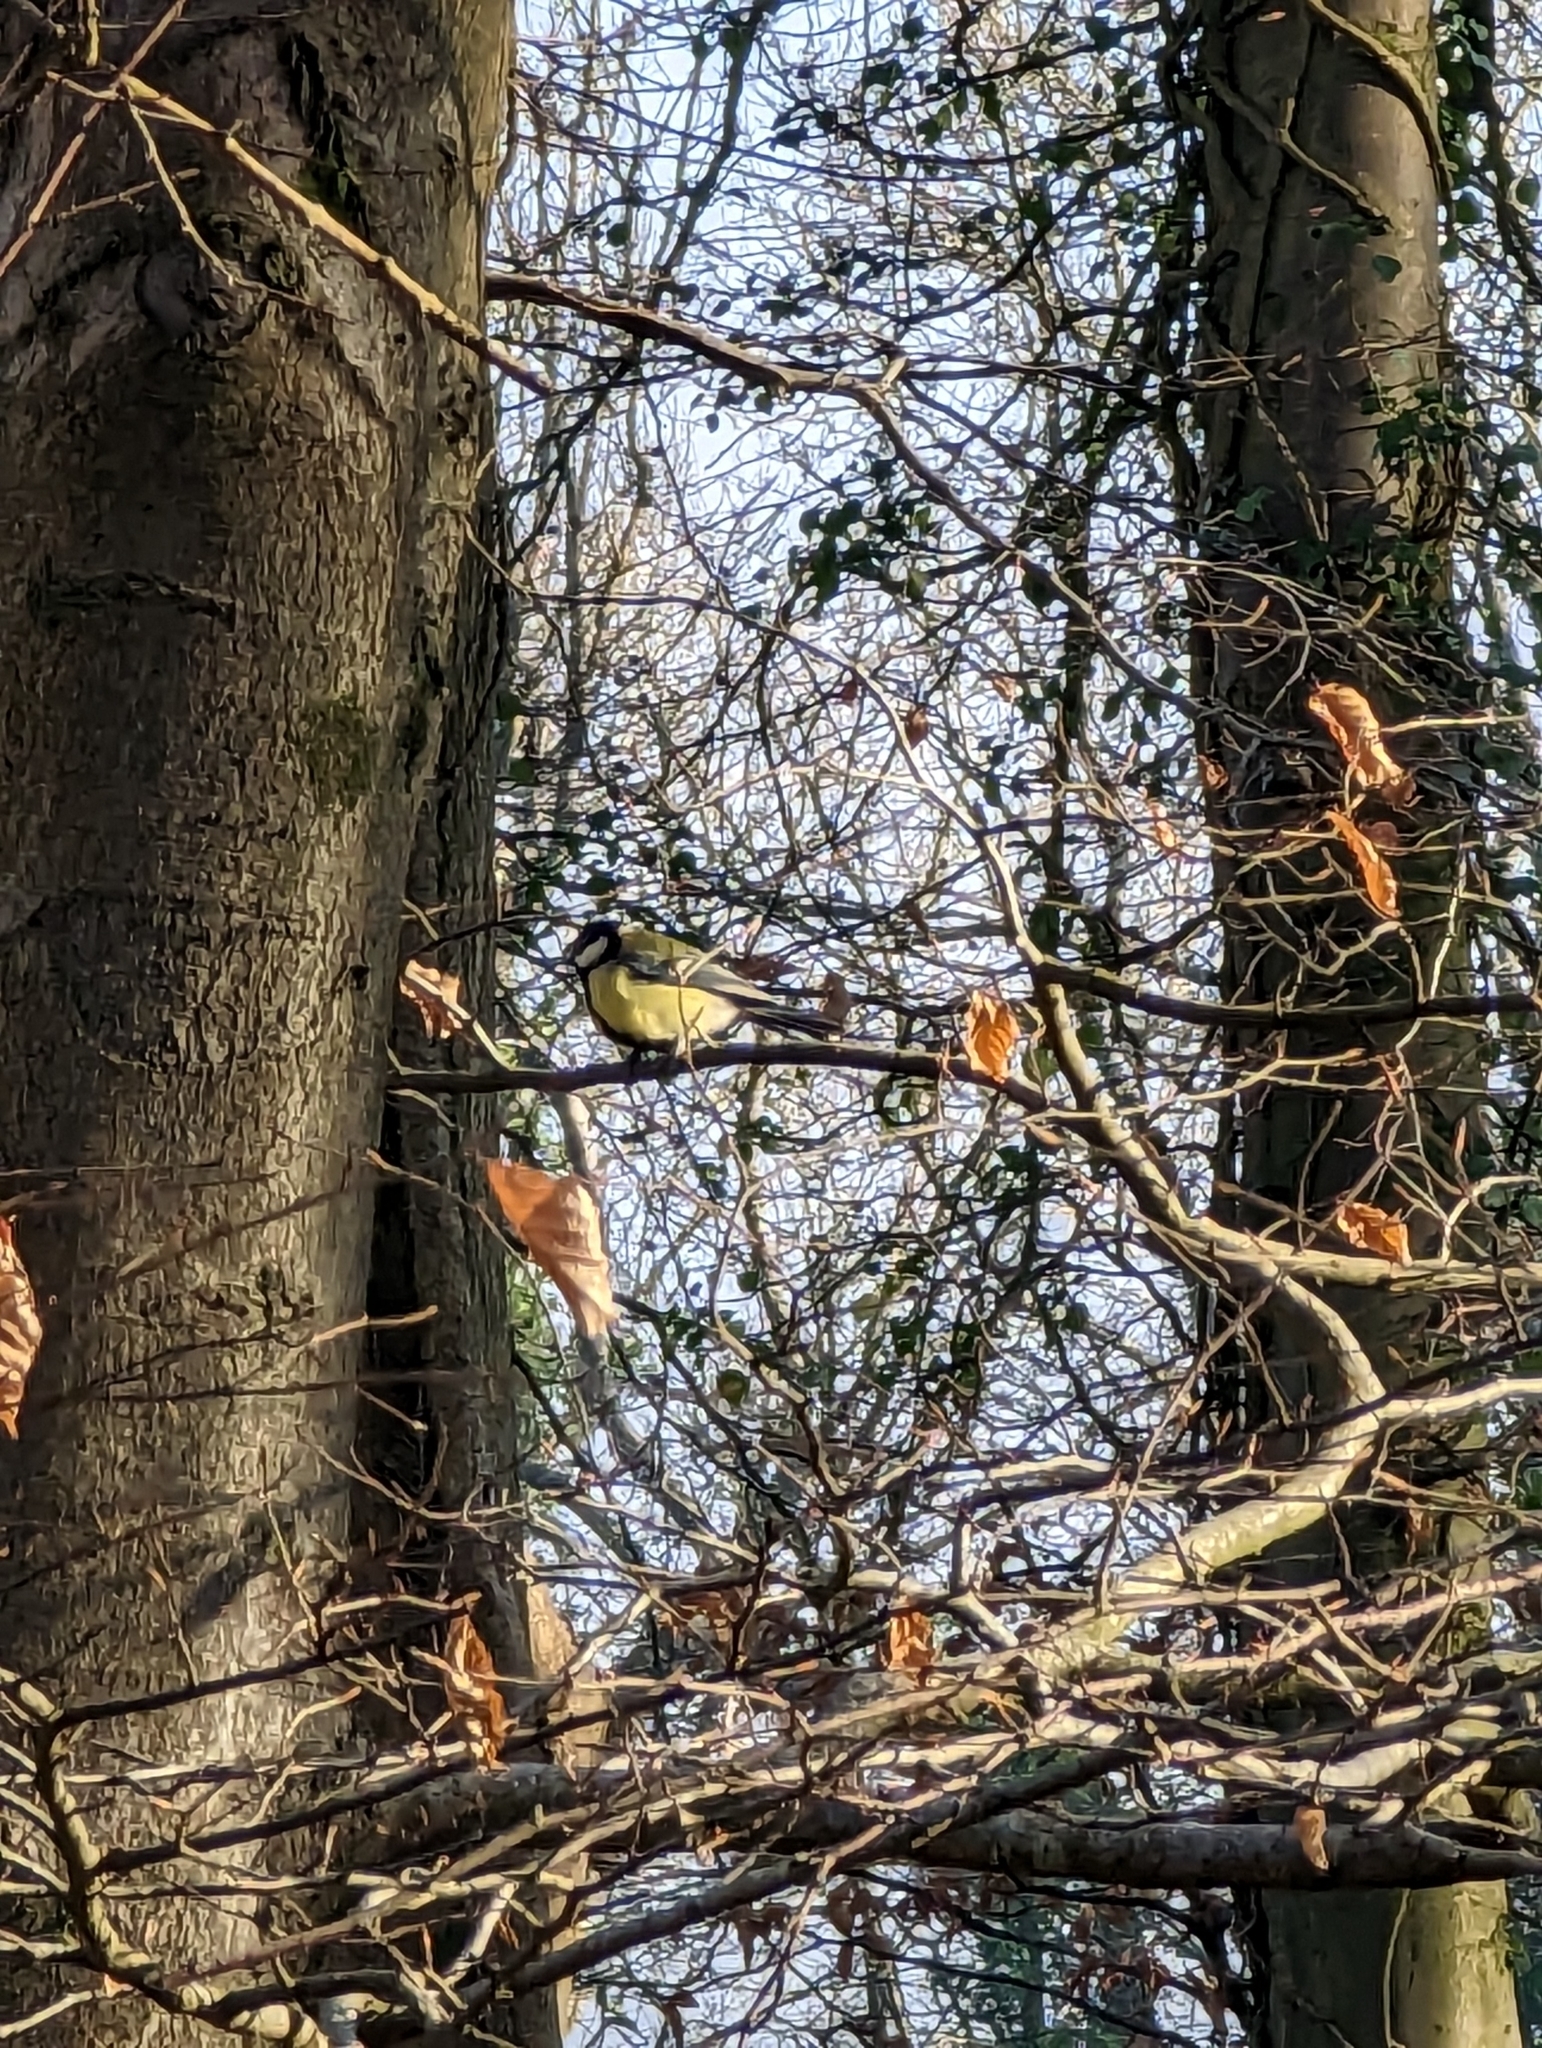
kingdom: Animalia
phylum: Chordata
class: Aves
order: Passeriformes
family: Paridae
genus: Parus
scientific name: Parus major
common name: Great tit
